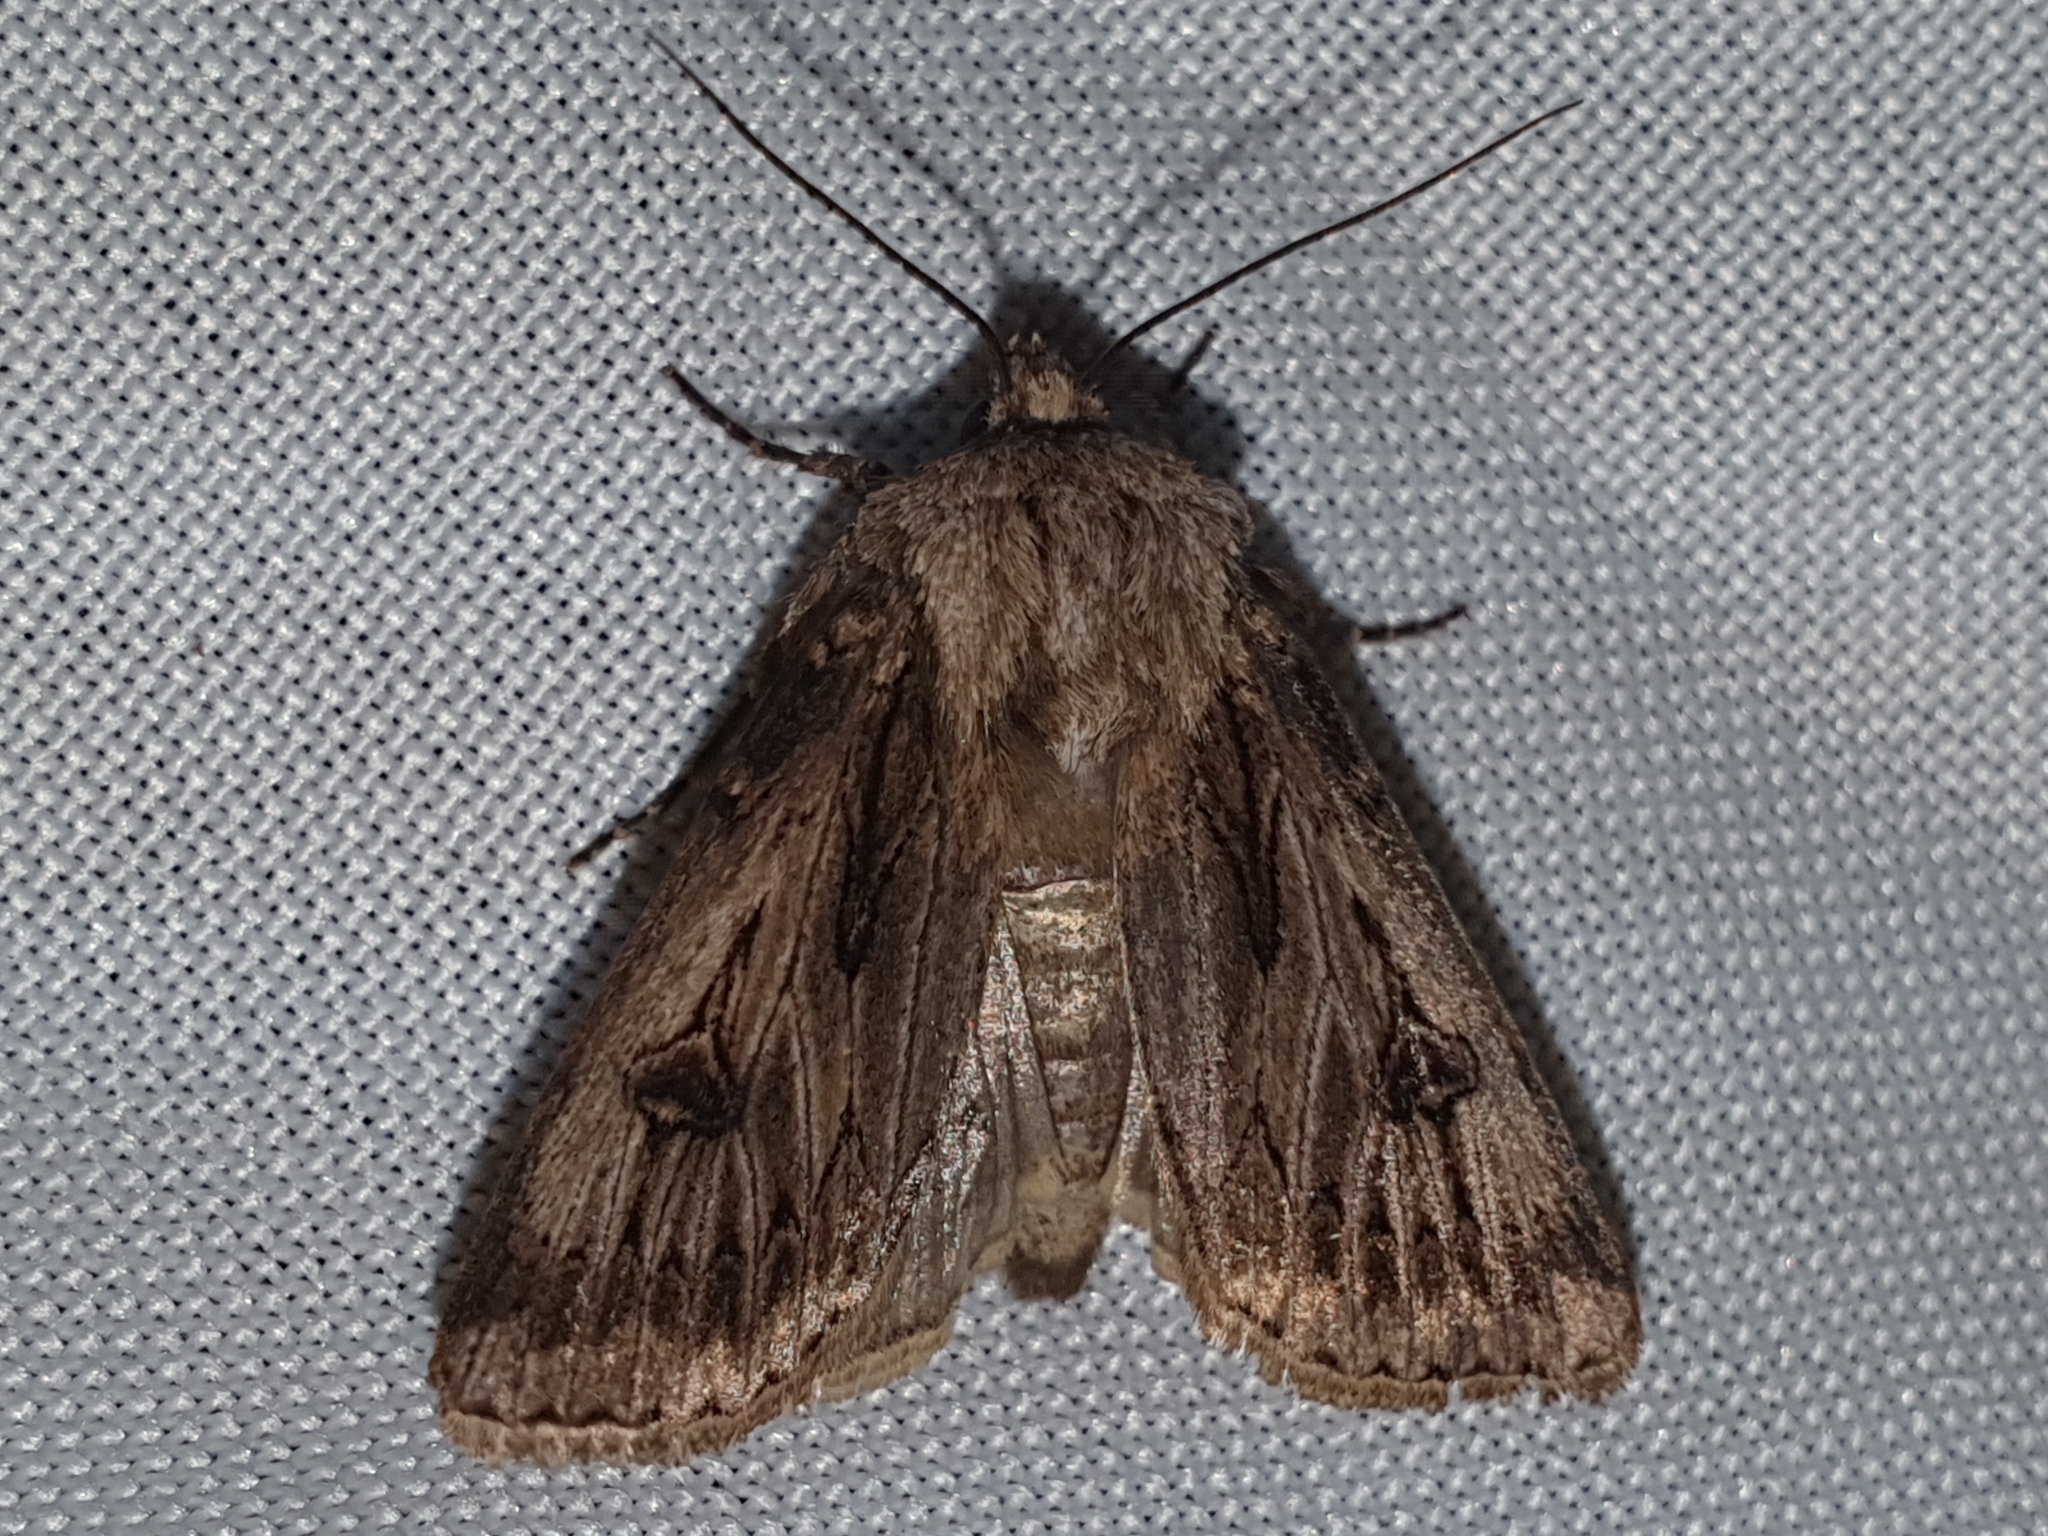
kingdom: Animalia
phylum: Arthropoda
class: Insecta
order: Lepidoptera
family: Noctuidae
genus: Agrotis
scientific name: Agrotis chretieni
